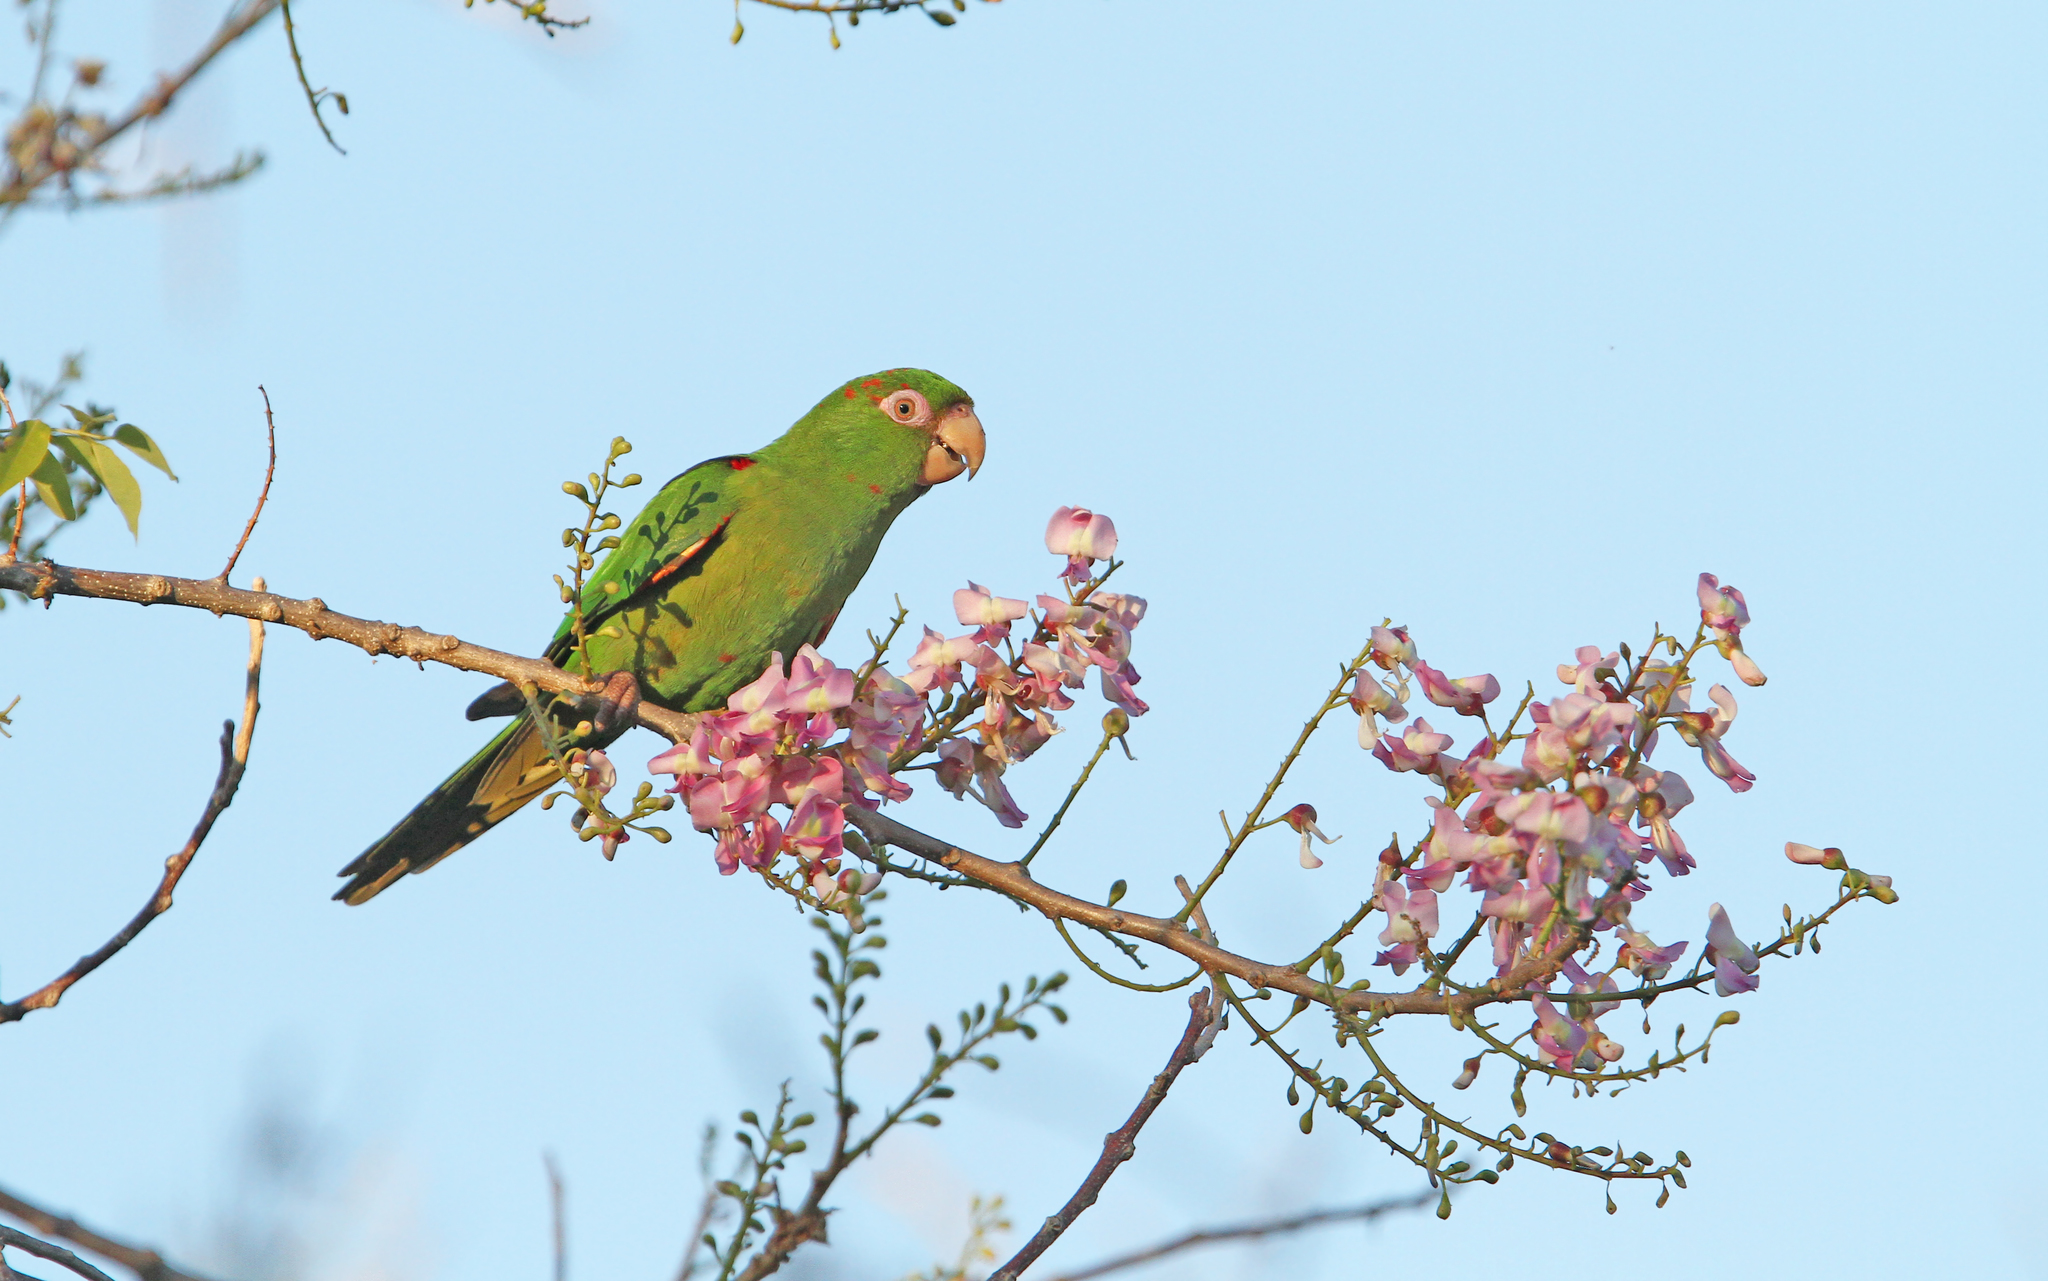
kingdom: Animalia
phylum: Chordata
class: Aves
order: Psittaciformes
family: Psittacidae
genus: Aratinga
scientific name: Aratinga euops
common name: Cuban parakeet
